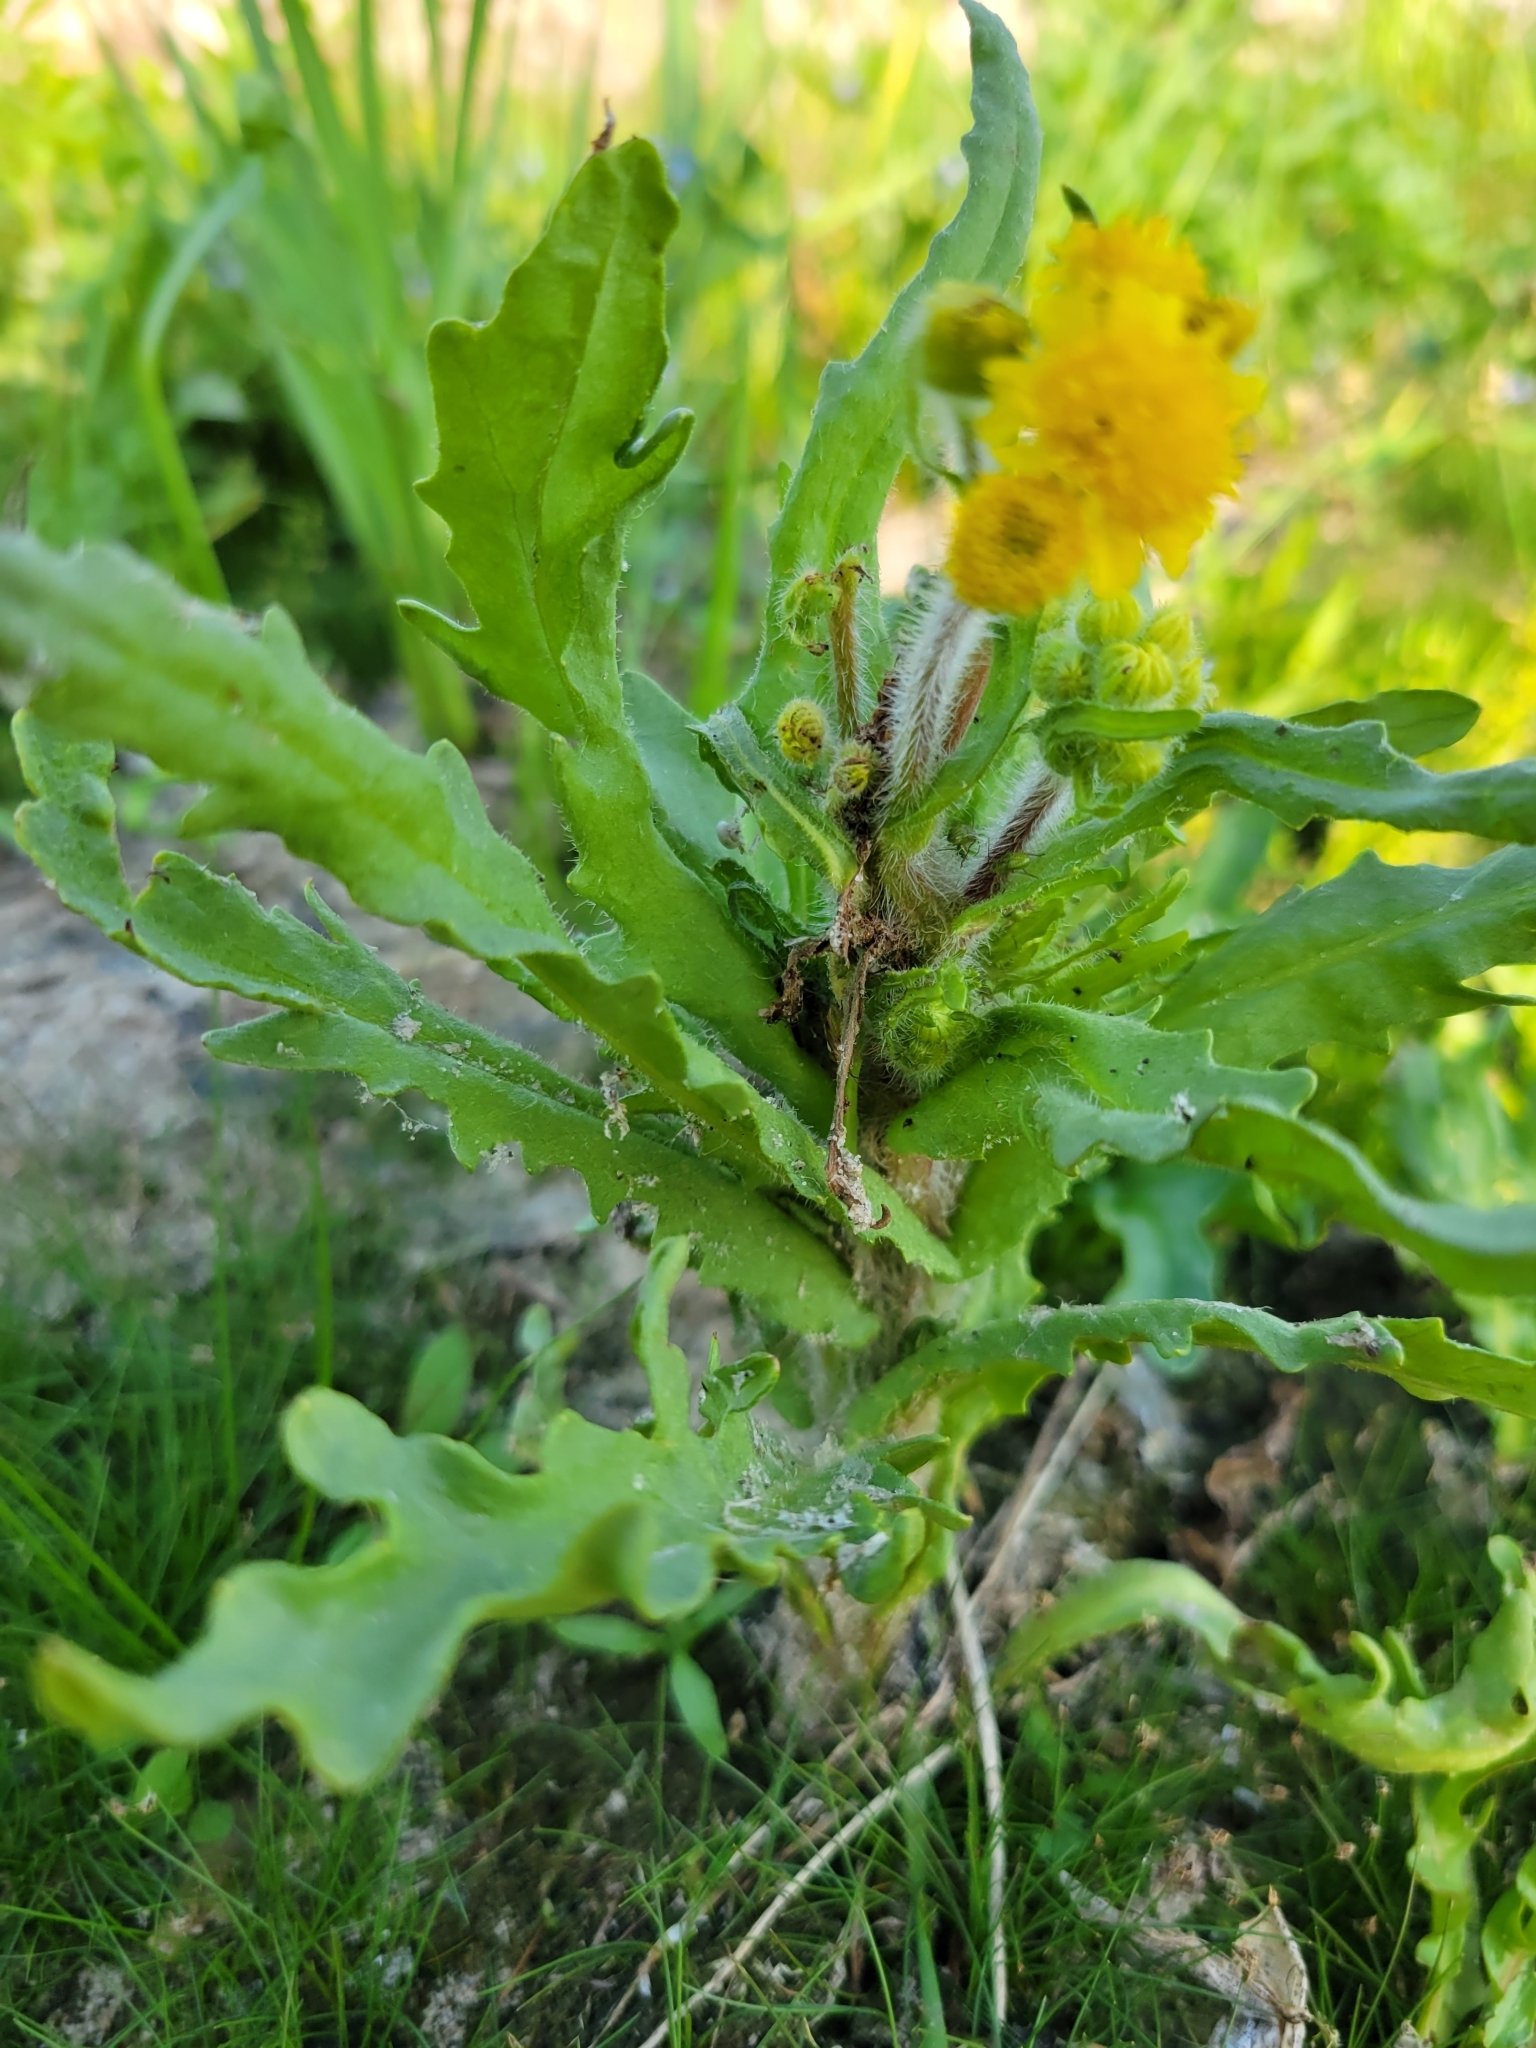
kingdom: Plantae
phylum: Tracheophyta
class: Magnoliopsida
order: Asterales
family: Asteraceae
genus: Tephroseris
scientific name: Tephroseris palustris
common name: Marsh fleawort
